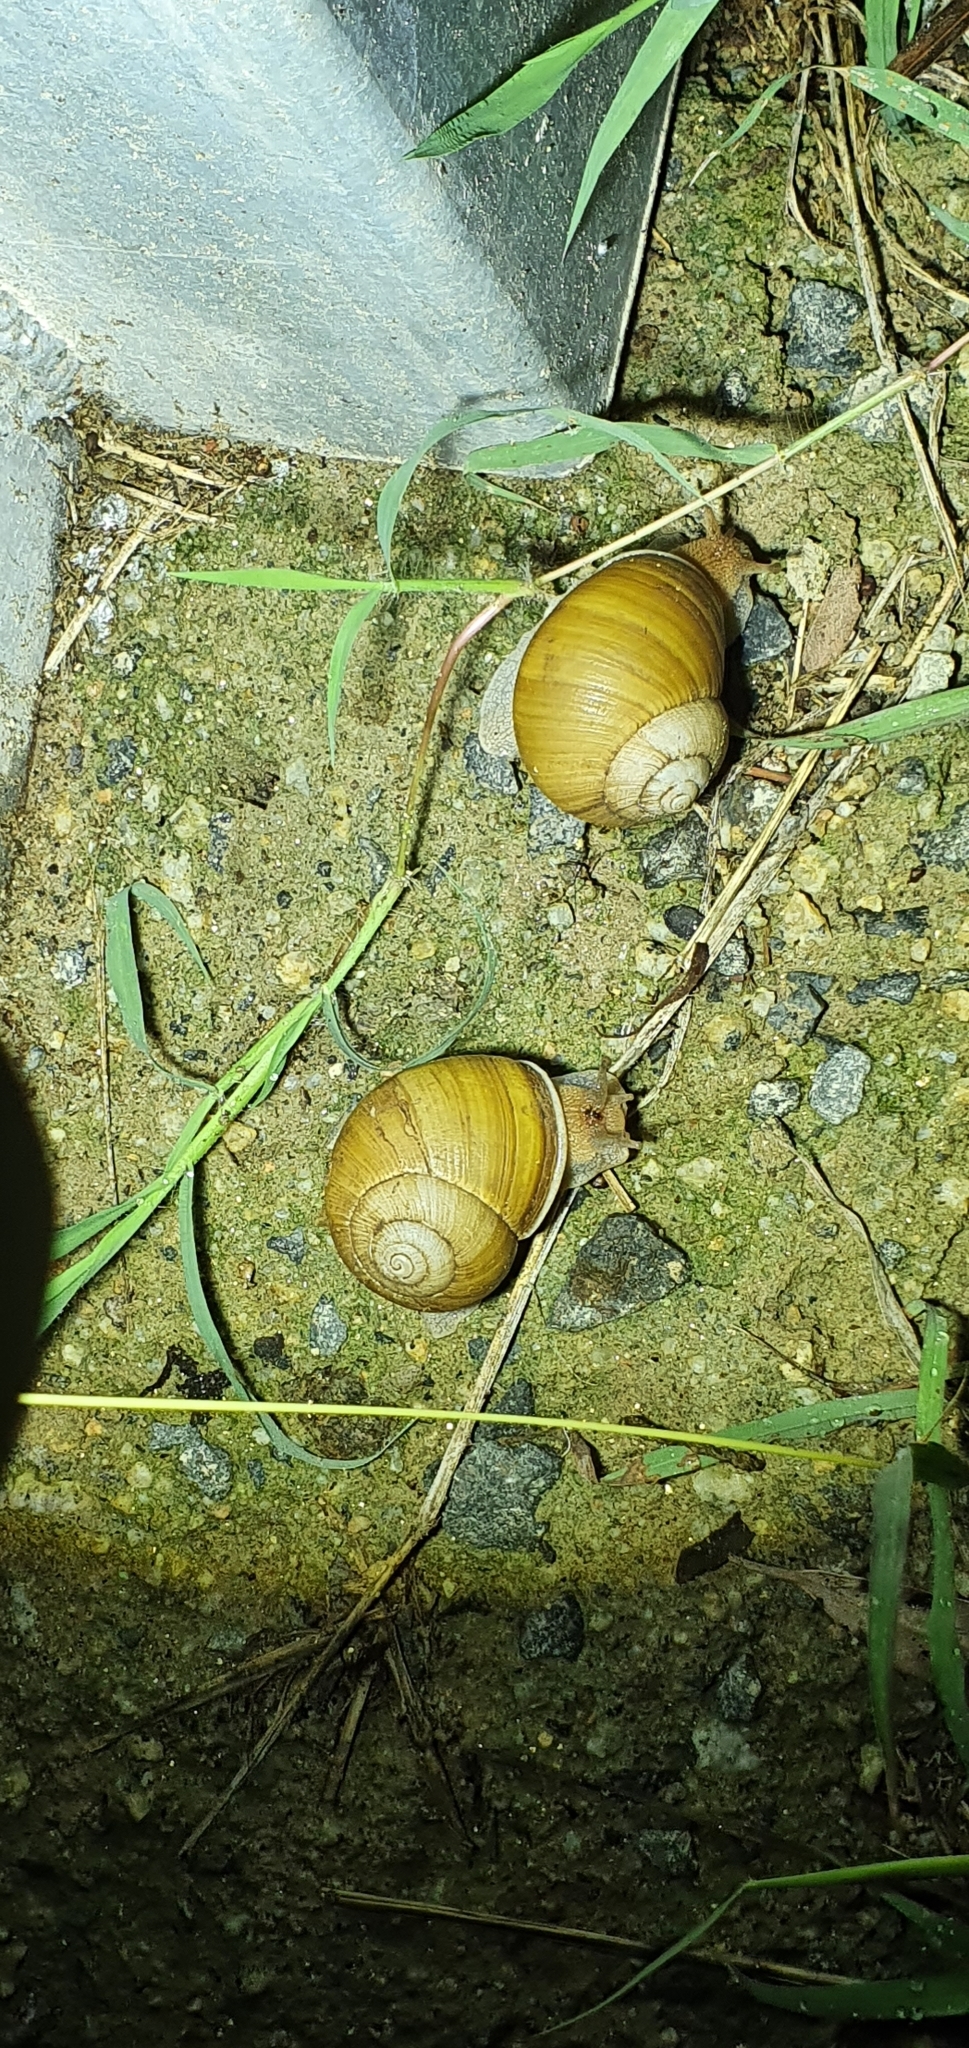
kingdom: Animalia
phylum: Mollusca
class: Gastropoda
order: Stylommatophora
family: Camaenidae
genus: Xanthomelon
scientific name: Xanthomelon pachystylum
